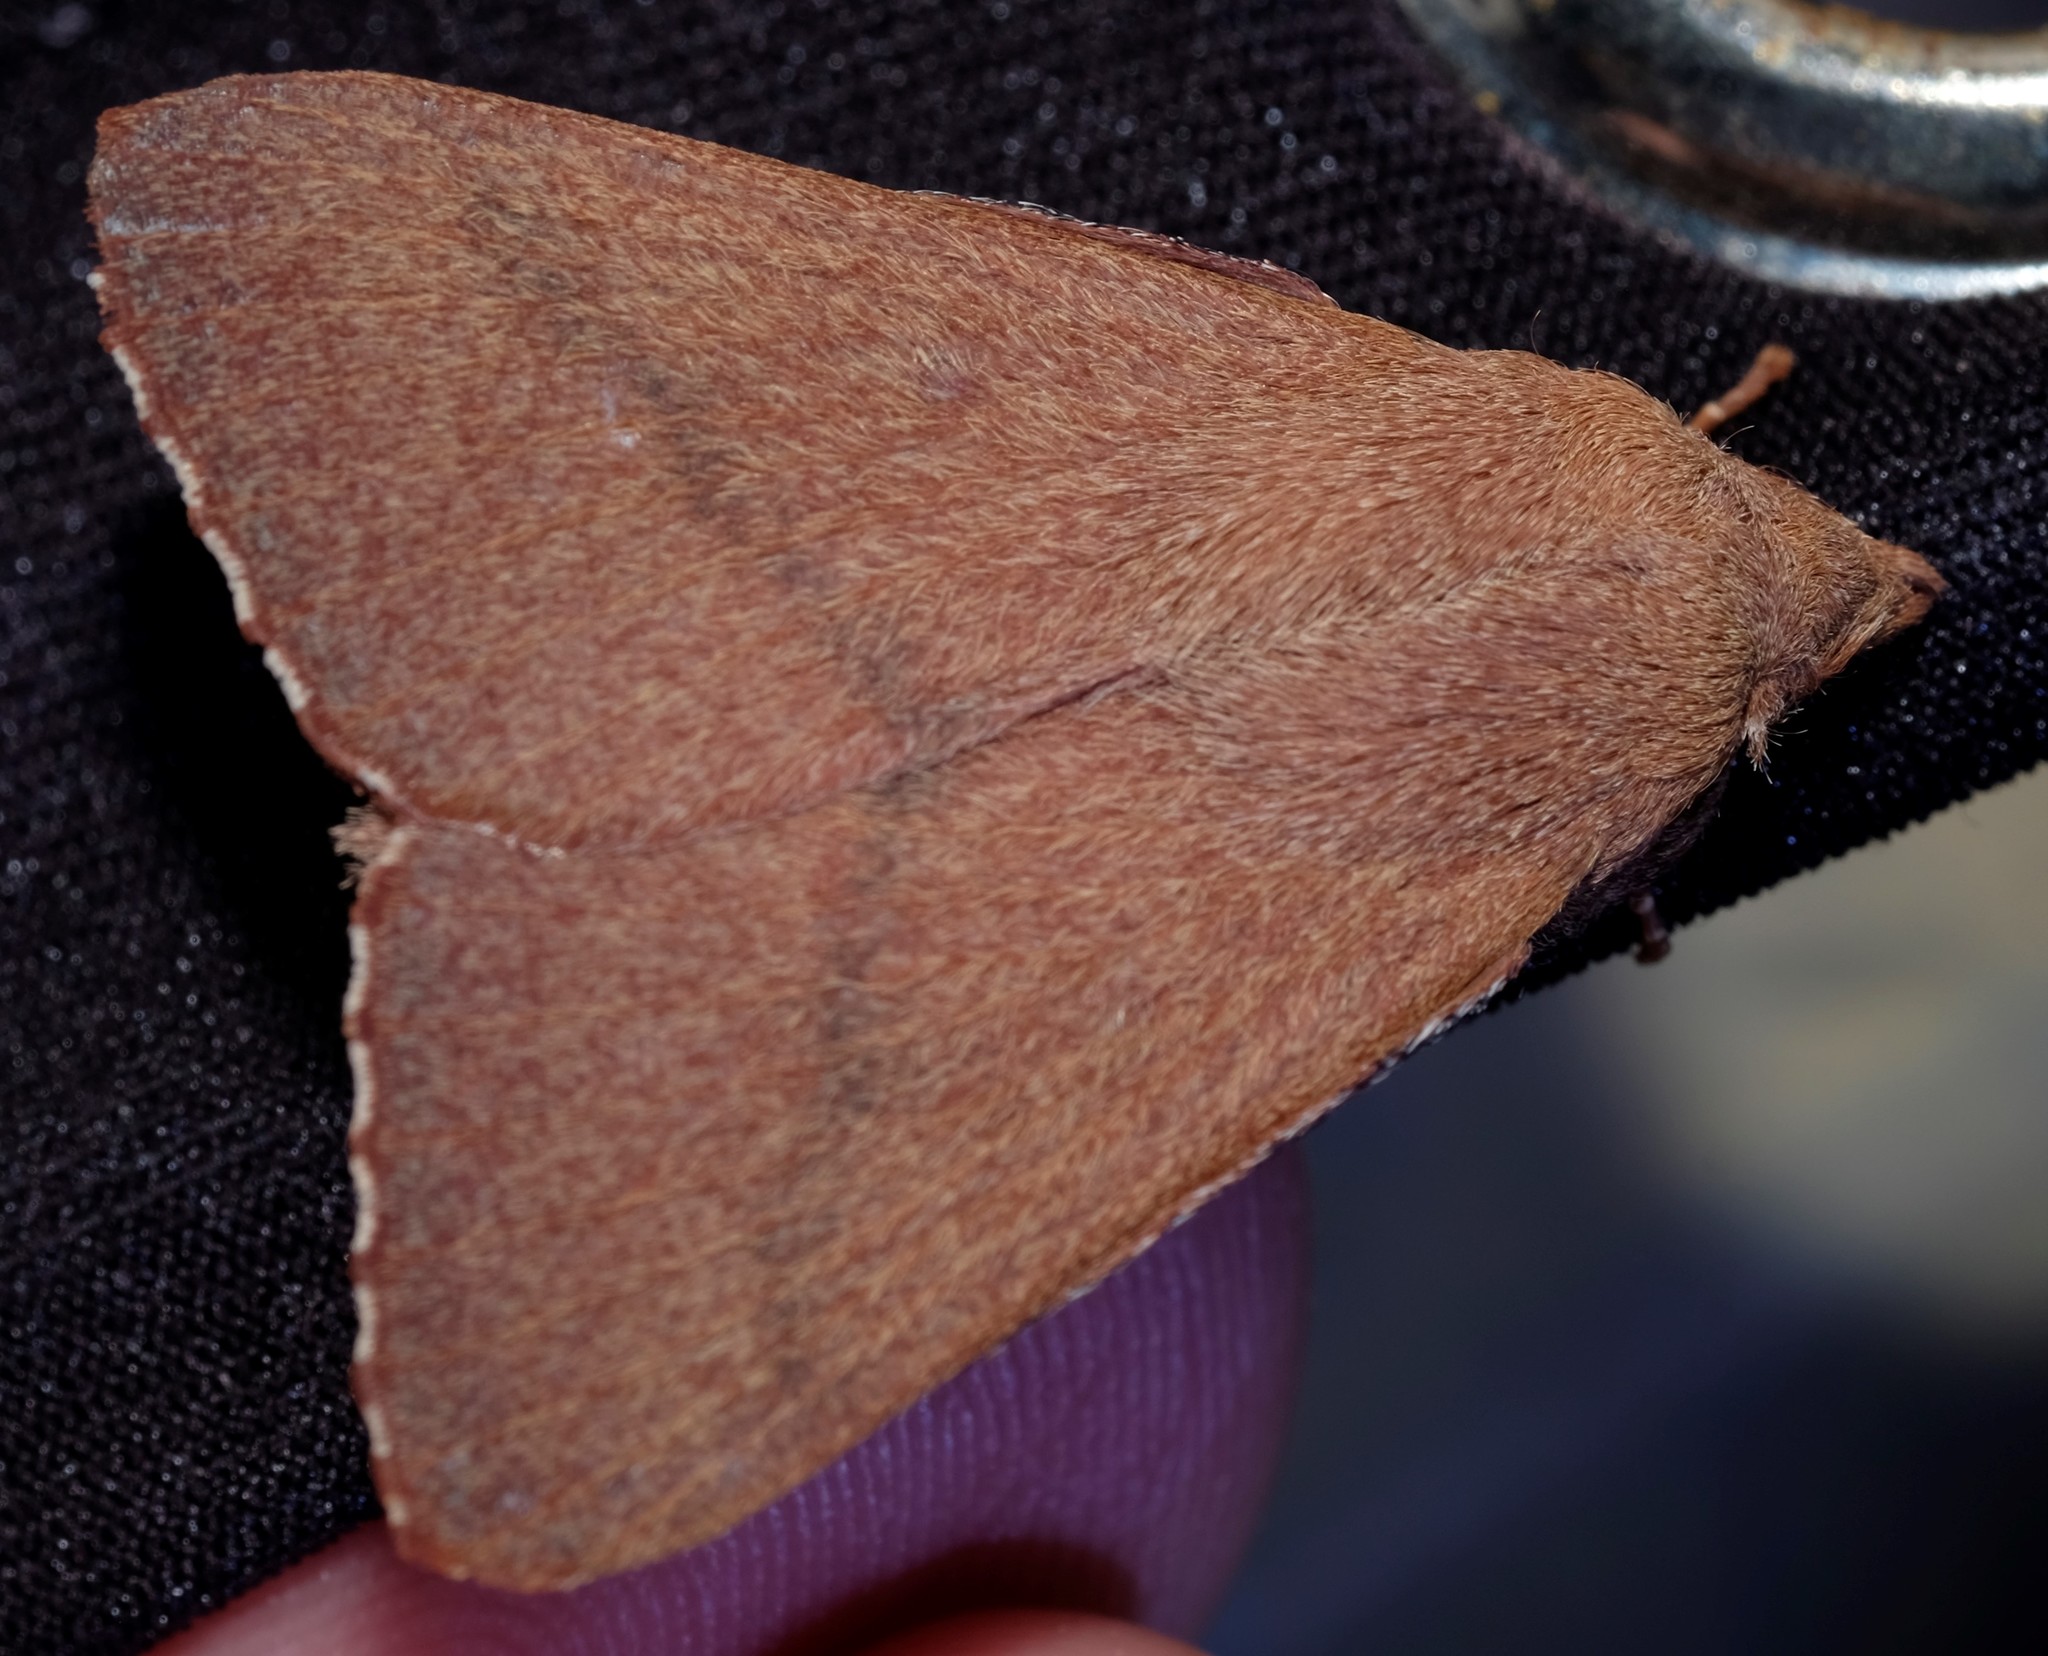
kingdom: Animalia
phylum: Arthropoda
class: Insecta
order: Lepidoptera
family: Lasiocampidae
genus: Pararguda
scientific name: Pararguda
